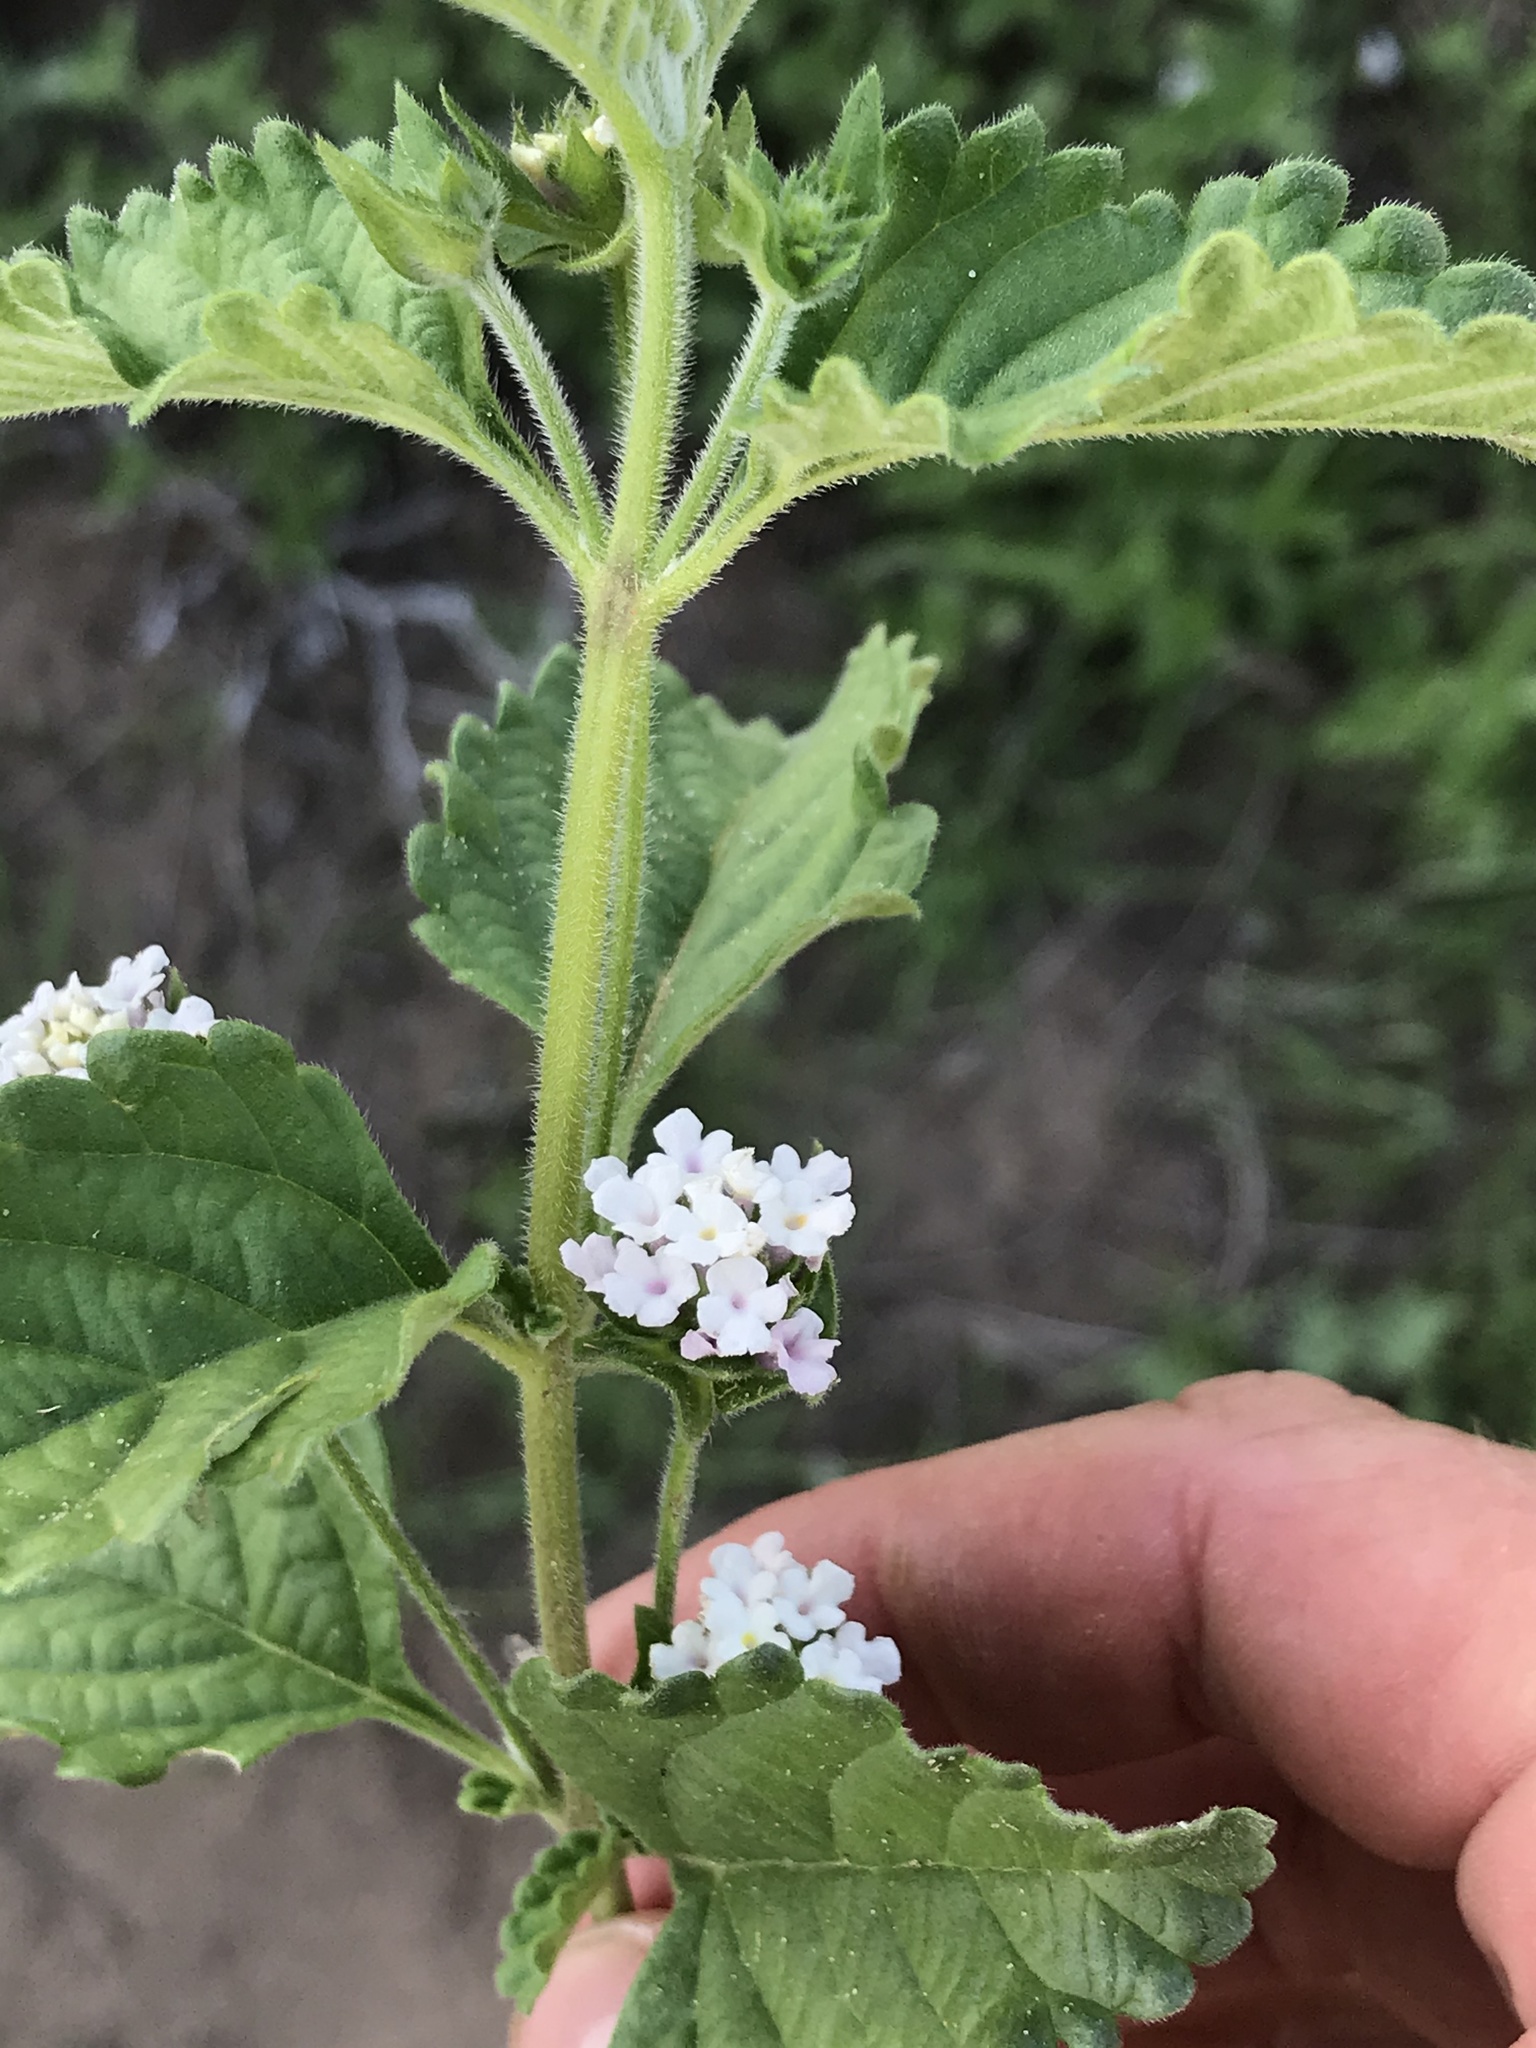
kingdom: Plantae
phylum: Tracheophyta
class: Magnoliopsida
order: Lamiales
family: Verbenaceae
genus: Lantana
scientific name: Lantana achyranthifolia
